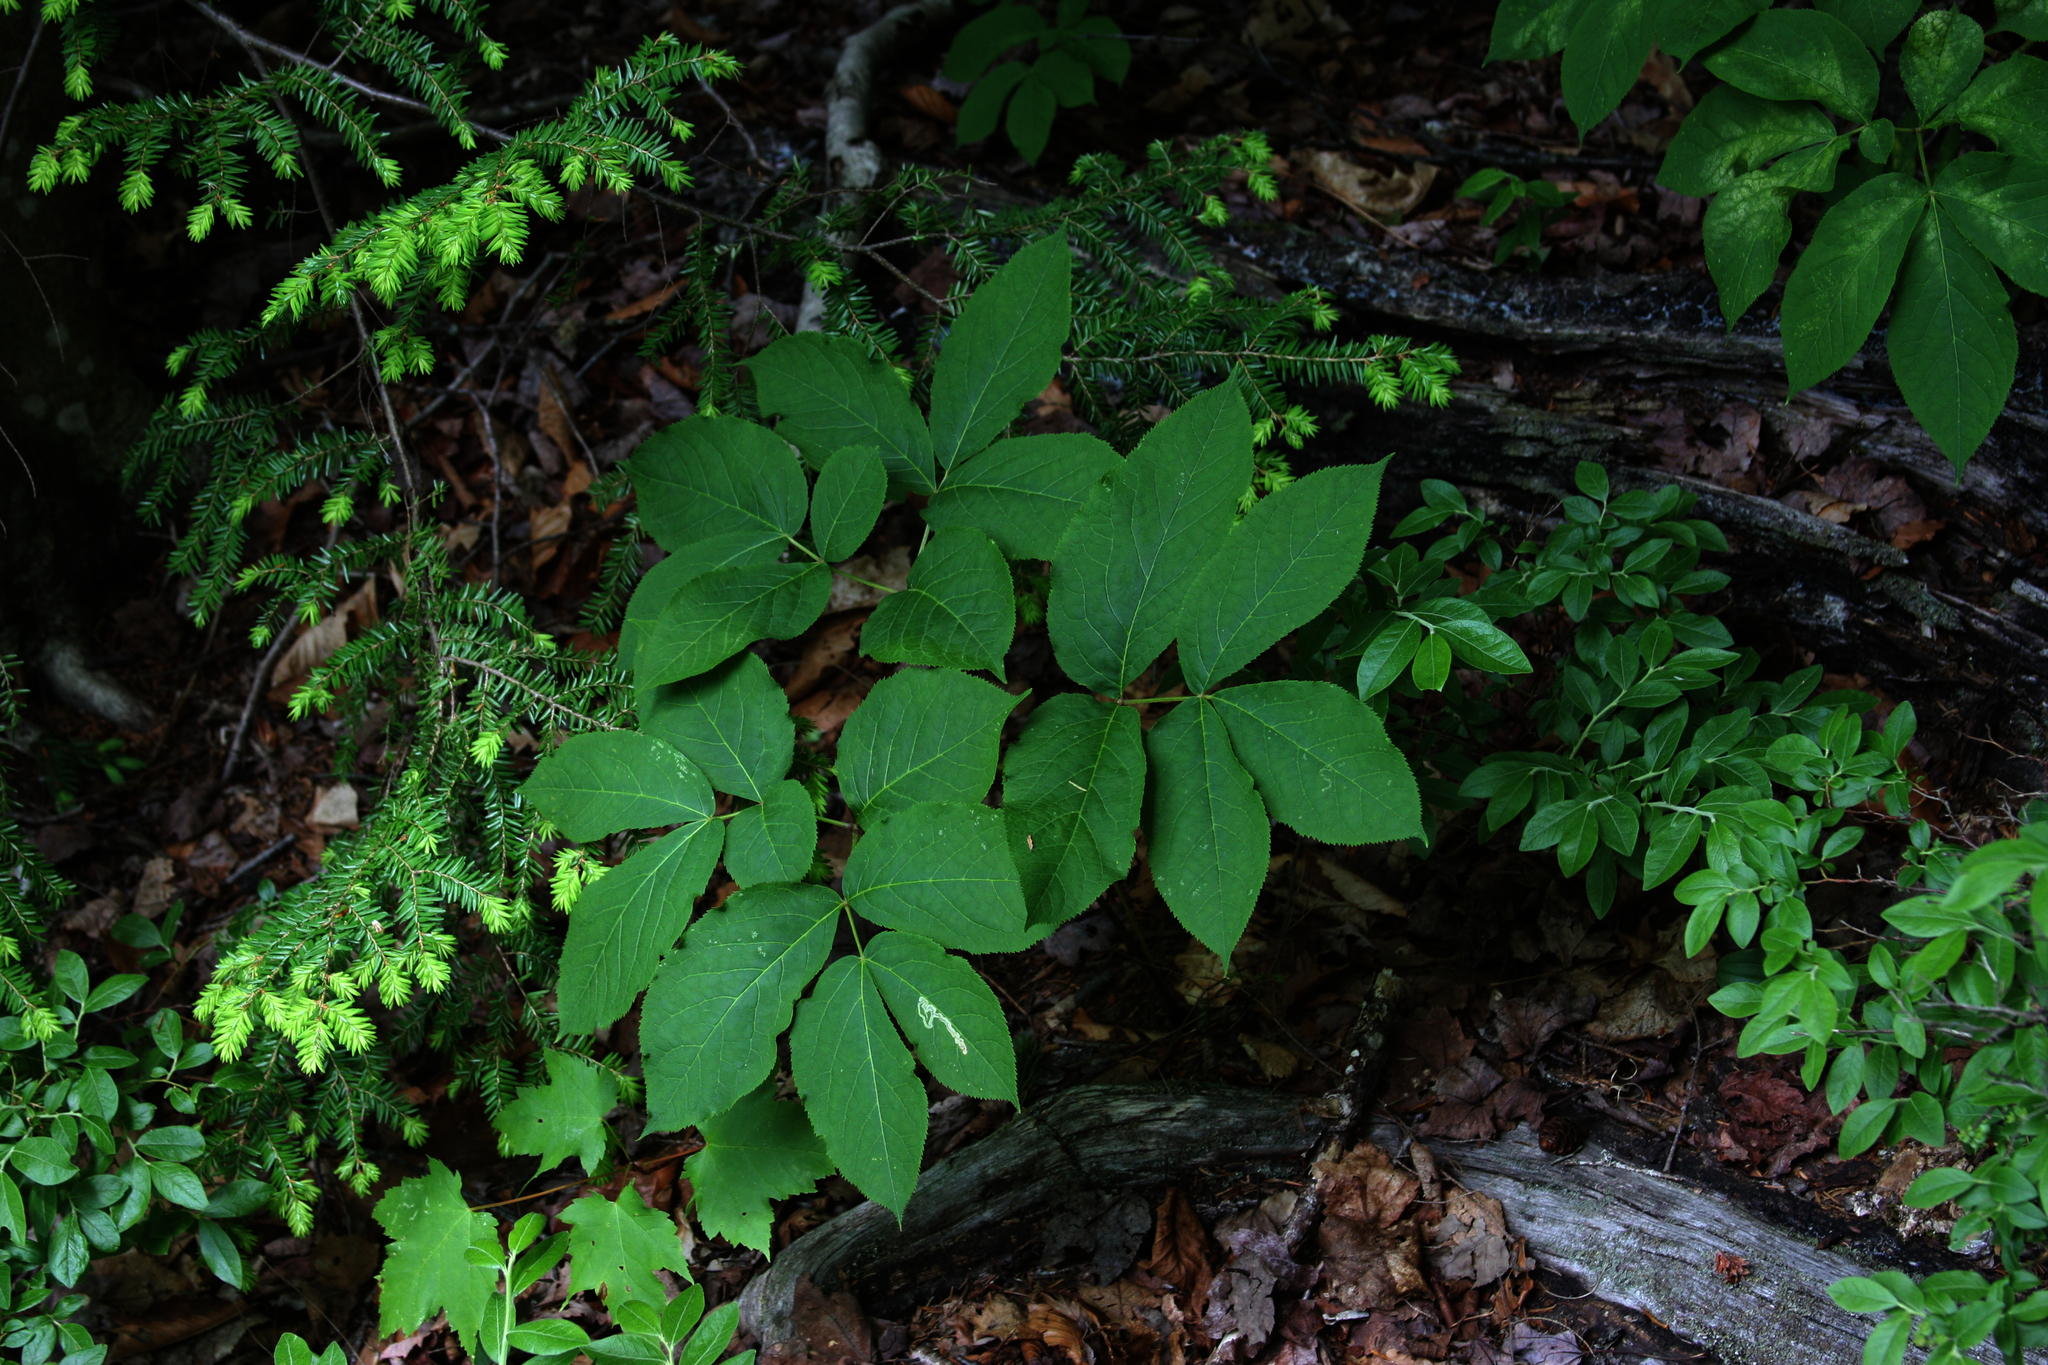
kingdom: Plantae
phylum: Tracheophyta
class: Magnoliopsida
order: Apiales
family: Araliaceae
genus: Aralia
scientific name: Aralia nudicaulis
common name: Wild sarsaparilla
